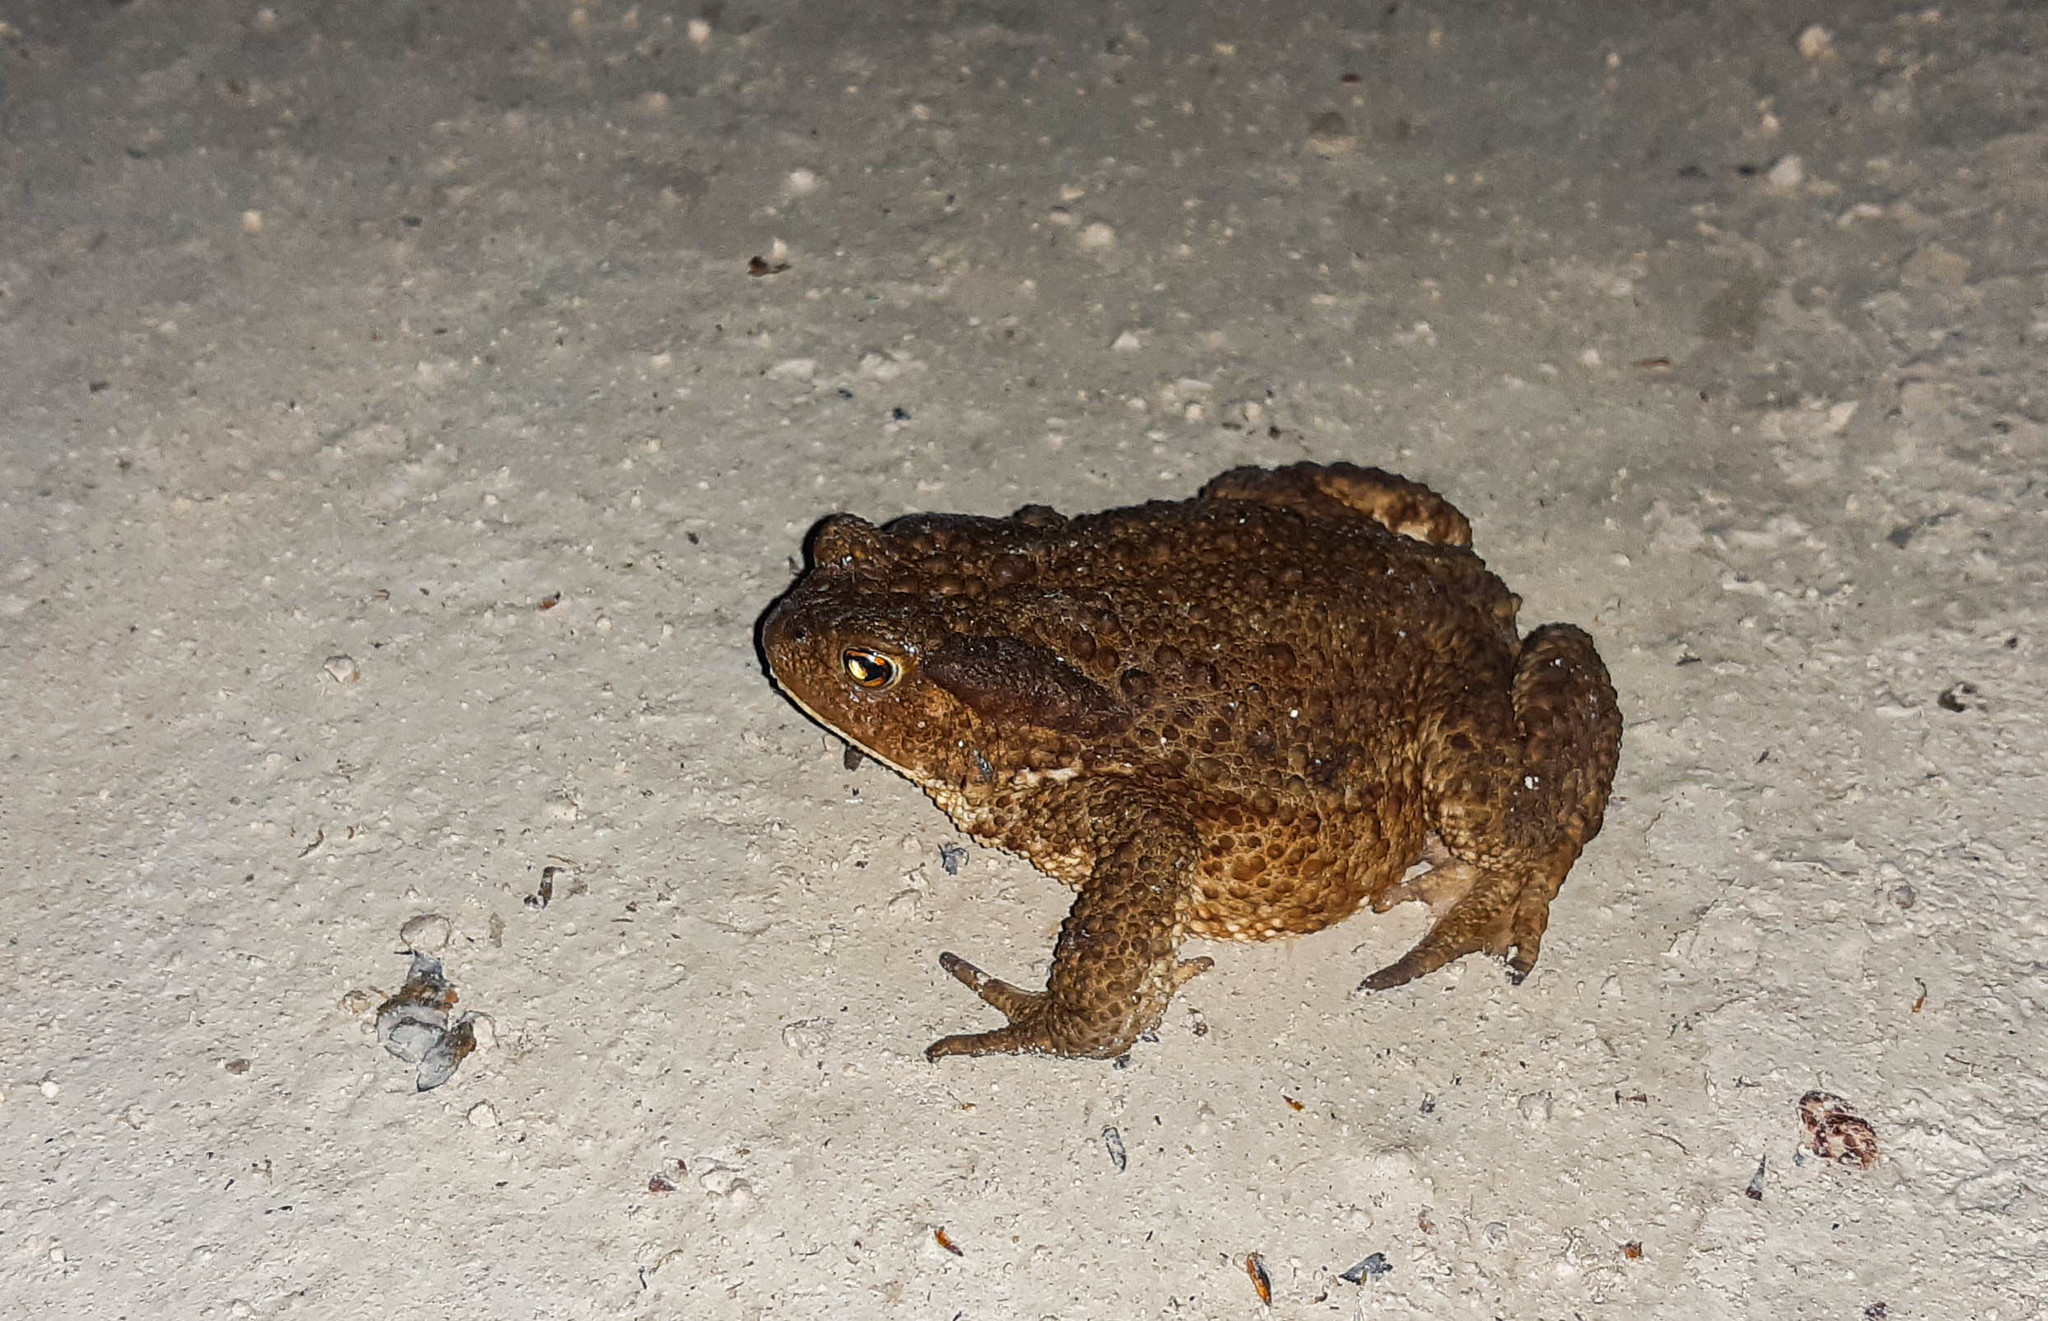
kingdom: Animalia
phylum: Chordata
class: Amphibia
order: Anura
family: Bufonidae
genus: Bufo
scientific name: Bufo bufo
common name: Common toad
